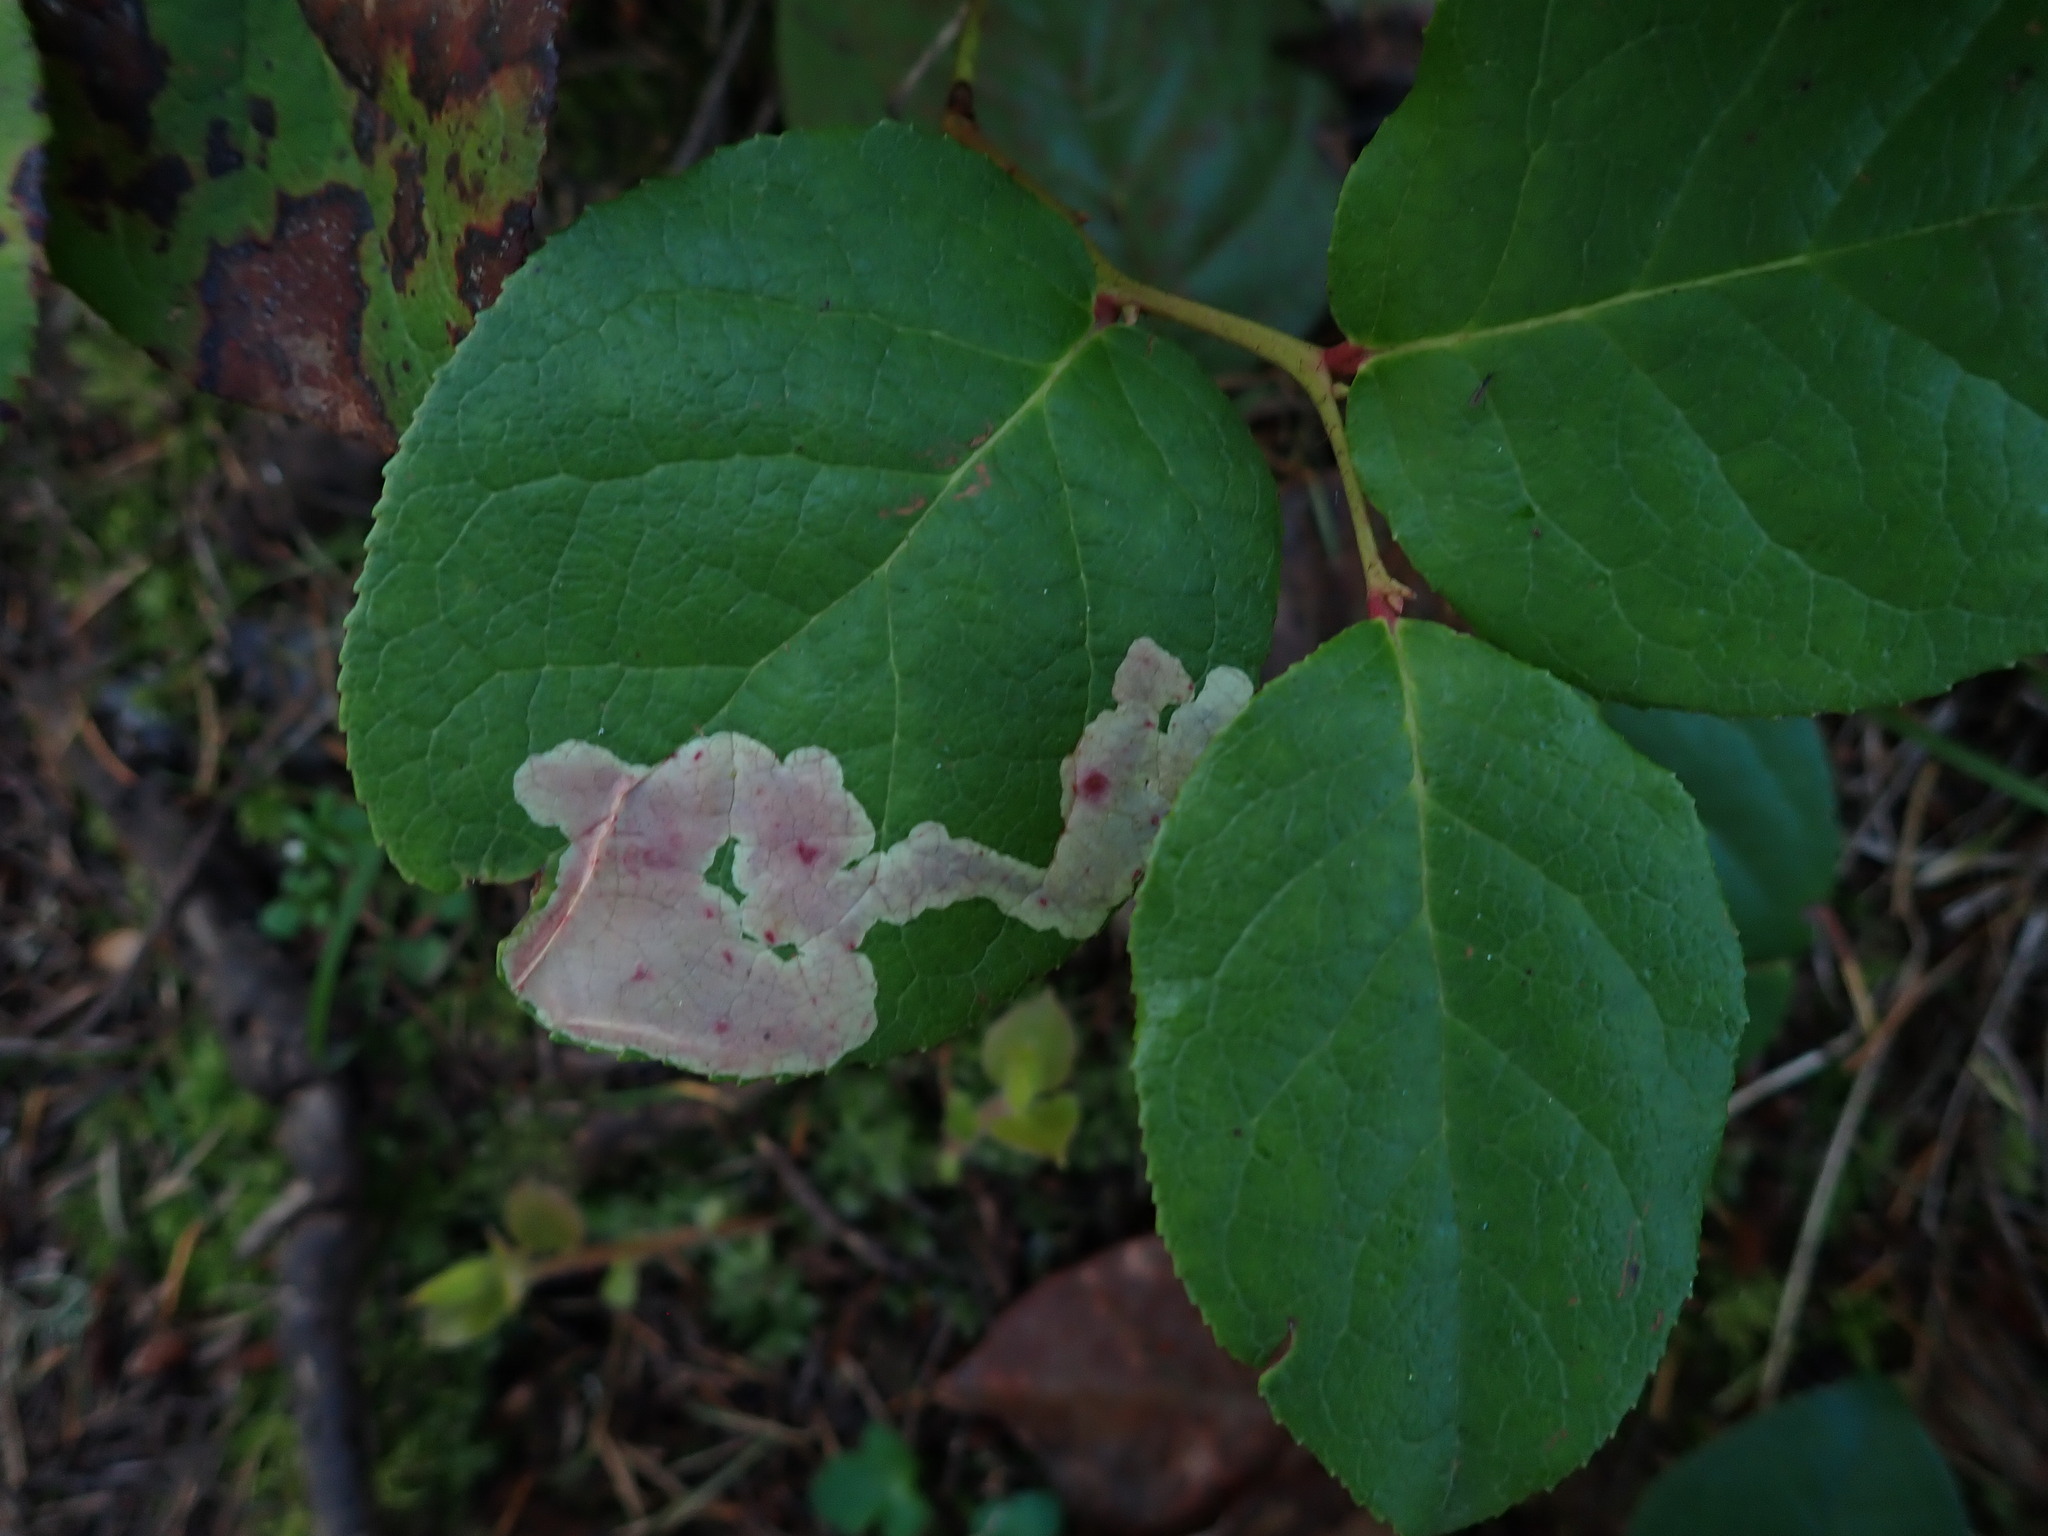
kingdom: Animalia
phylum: Arthropoda
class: Insecta
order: Lepidoptera
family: Gracillariidae
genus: Cameraria
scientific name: Cameraria gaultheriella
